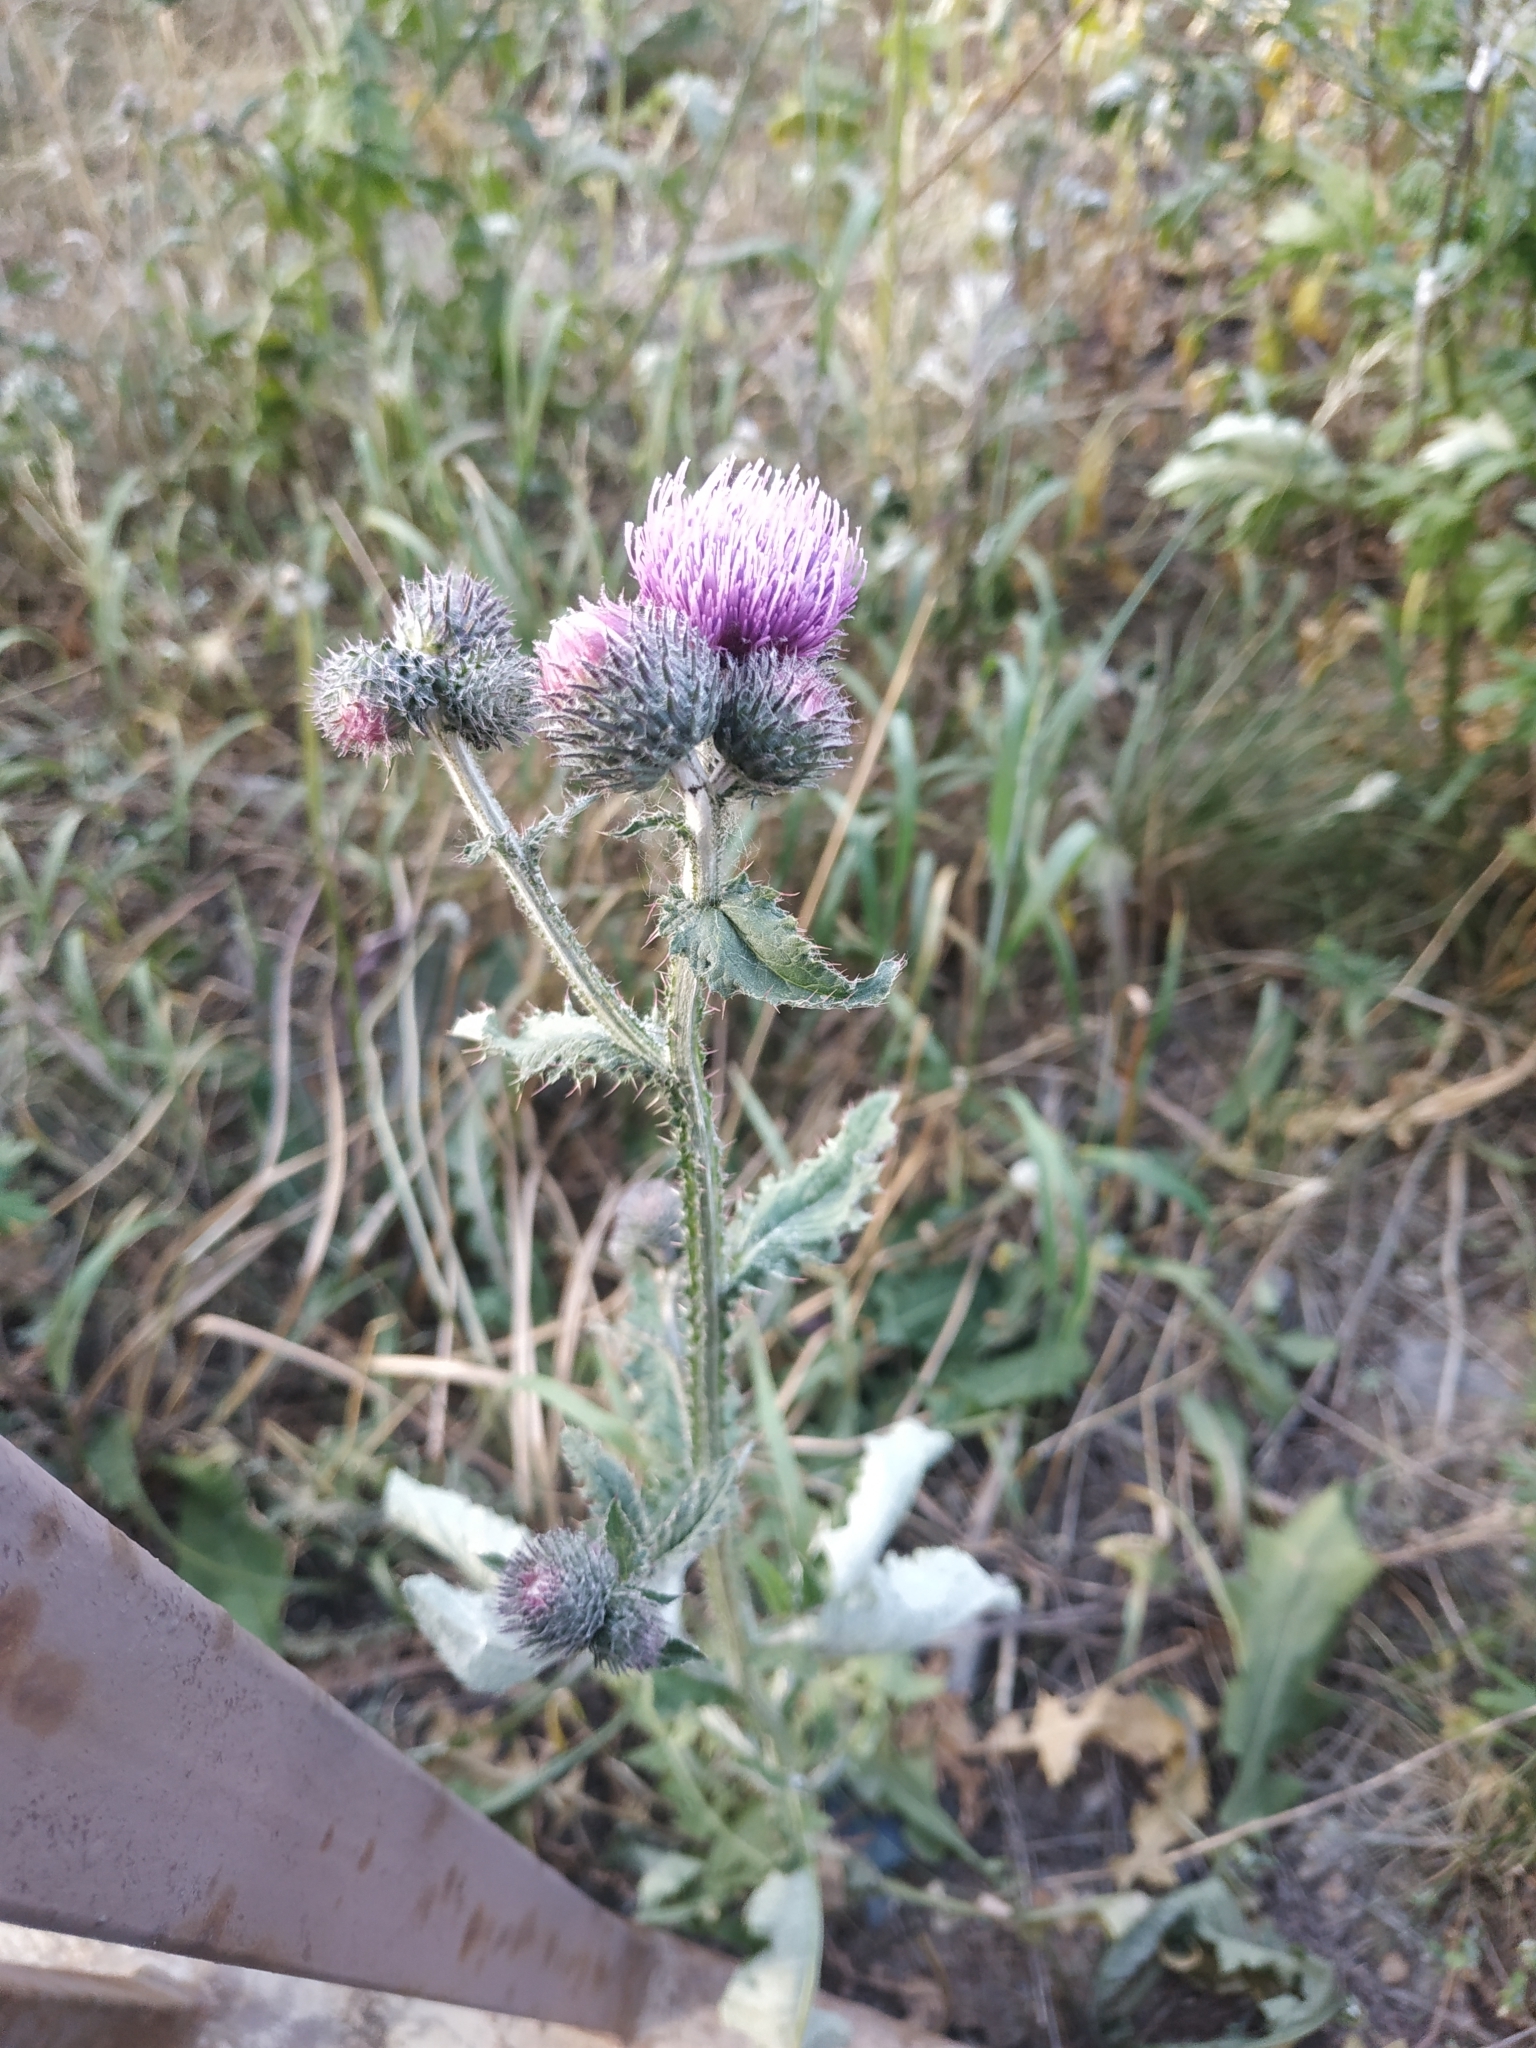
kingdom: Plantae
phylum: Tracheophyta
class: Magnoliopsida
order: Asterales
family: Asteraceae
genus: Carduus
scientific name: Carduus crispus
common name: Welted thistle
